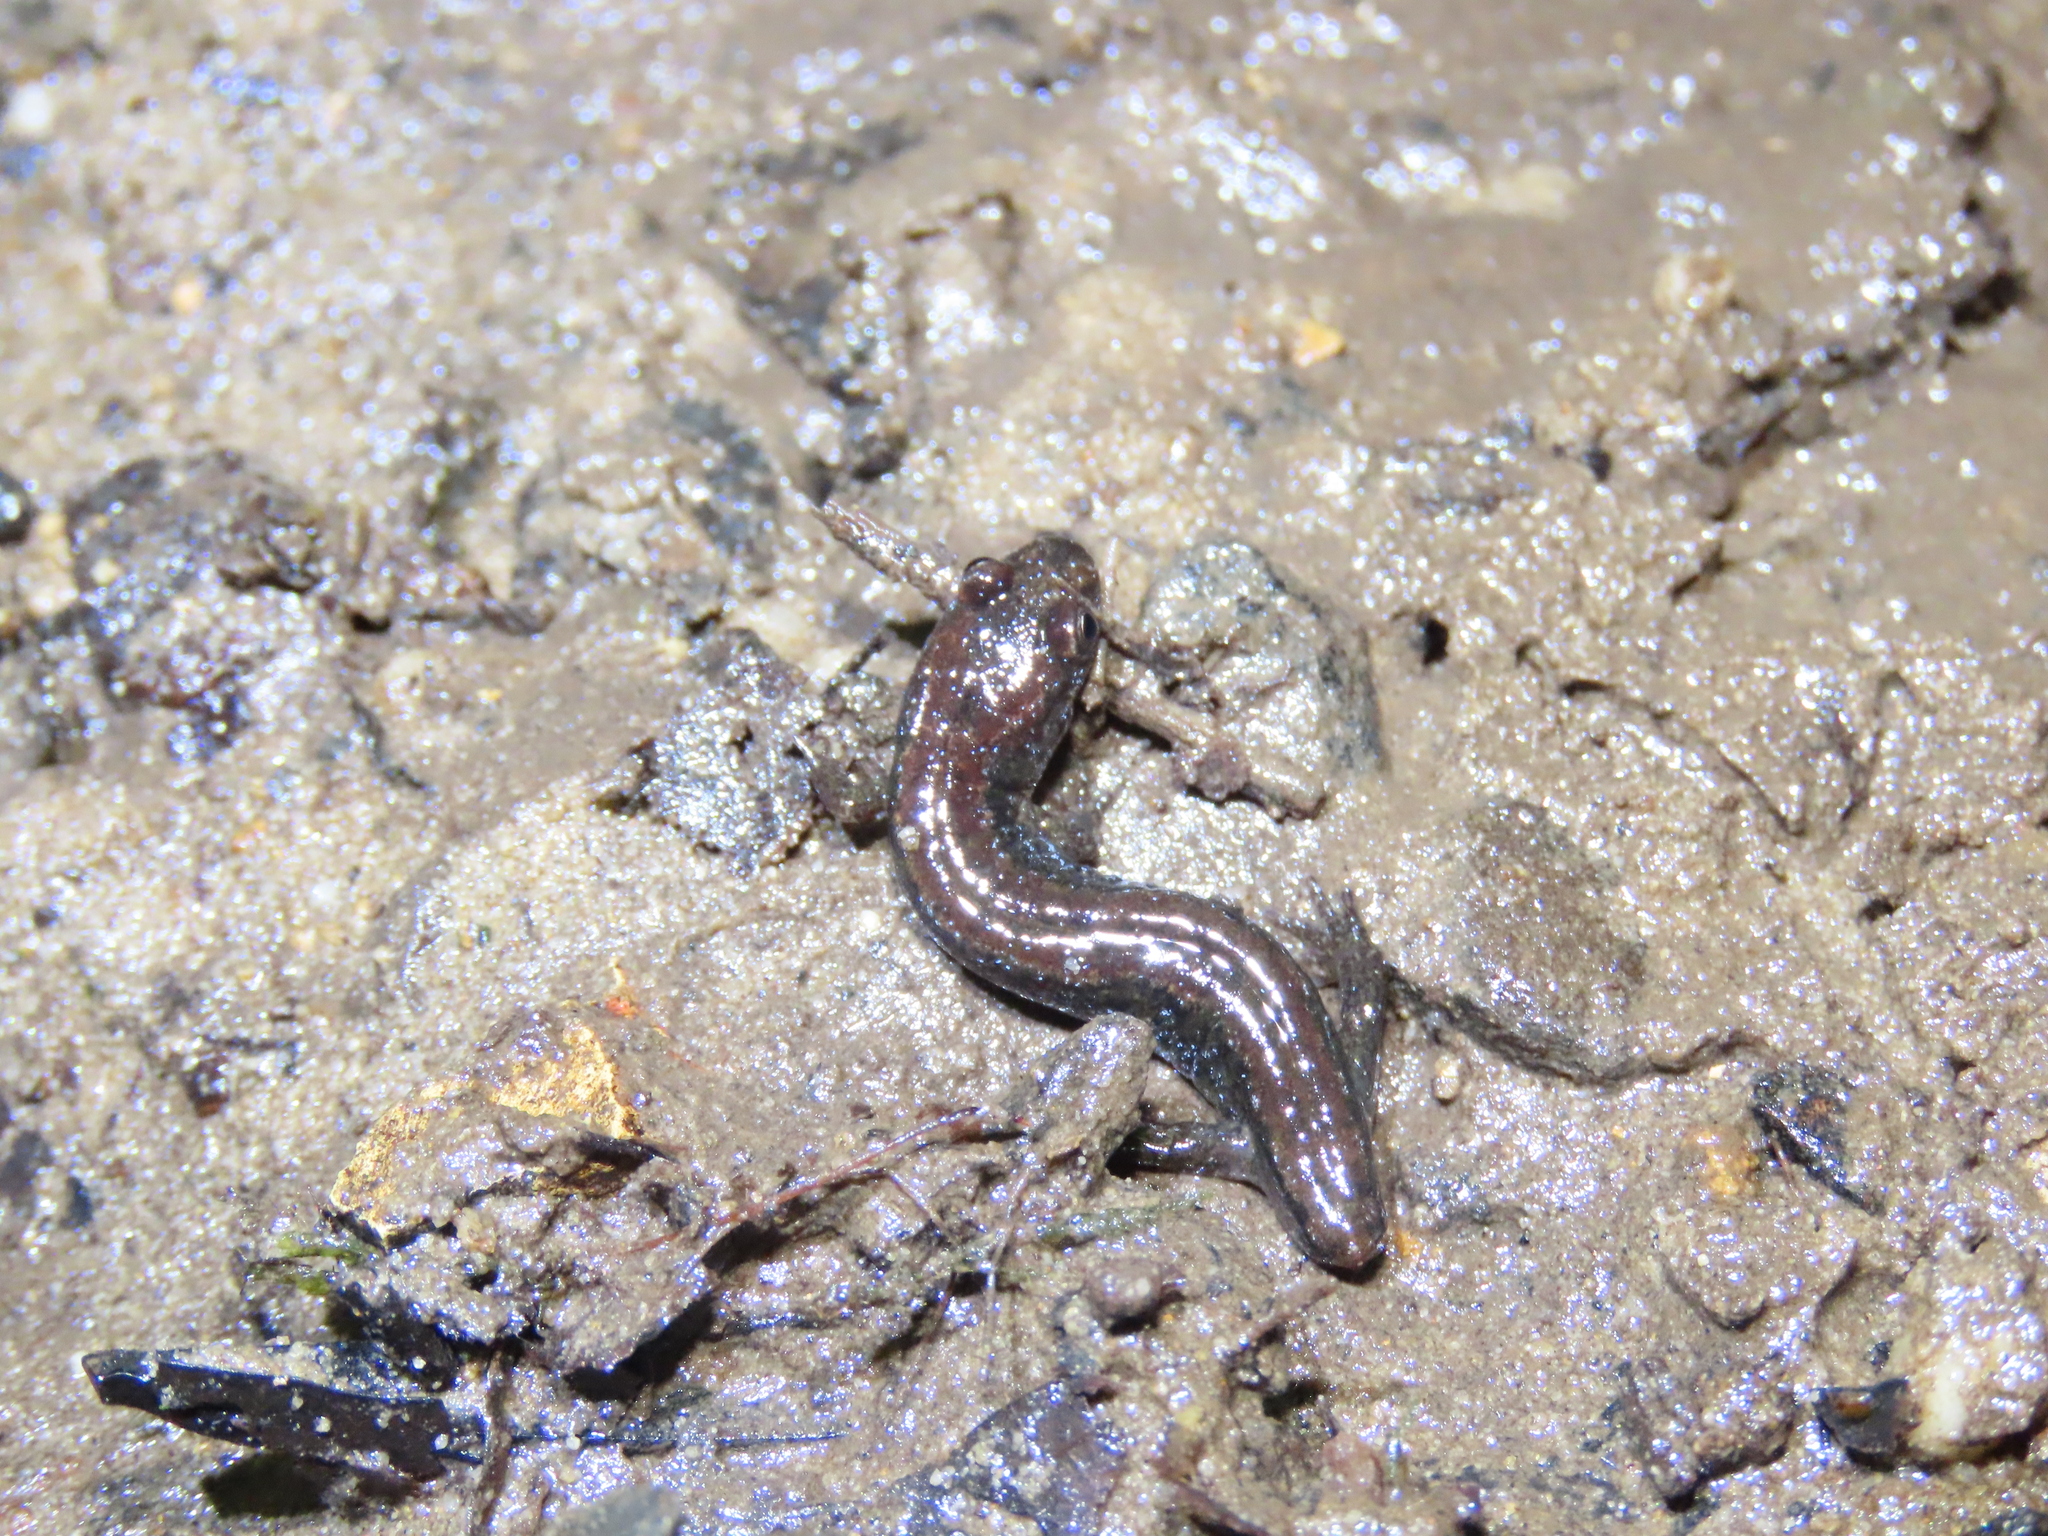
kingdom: Animalia
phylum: Chordata
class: Amphibia
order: Caudata
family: Plethodontidae
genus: Desmognathus
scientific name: Desmognathus fuscus
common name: Northern dusky salamander
